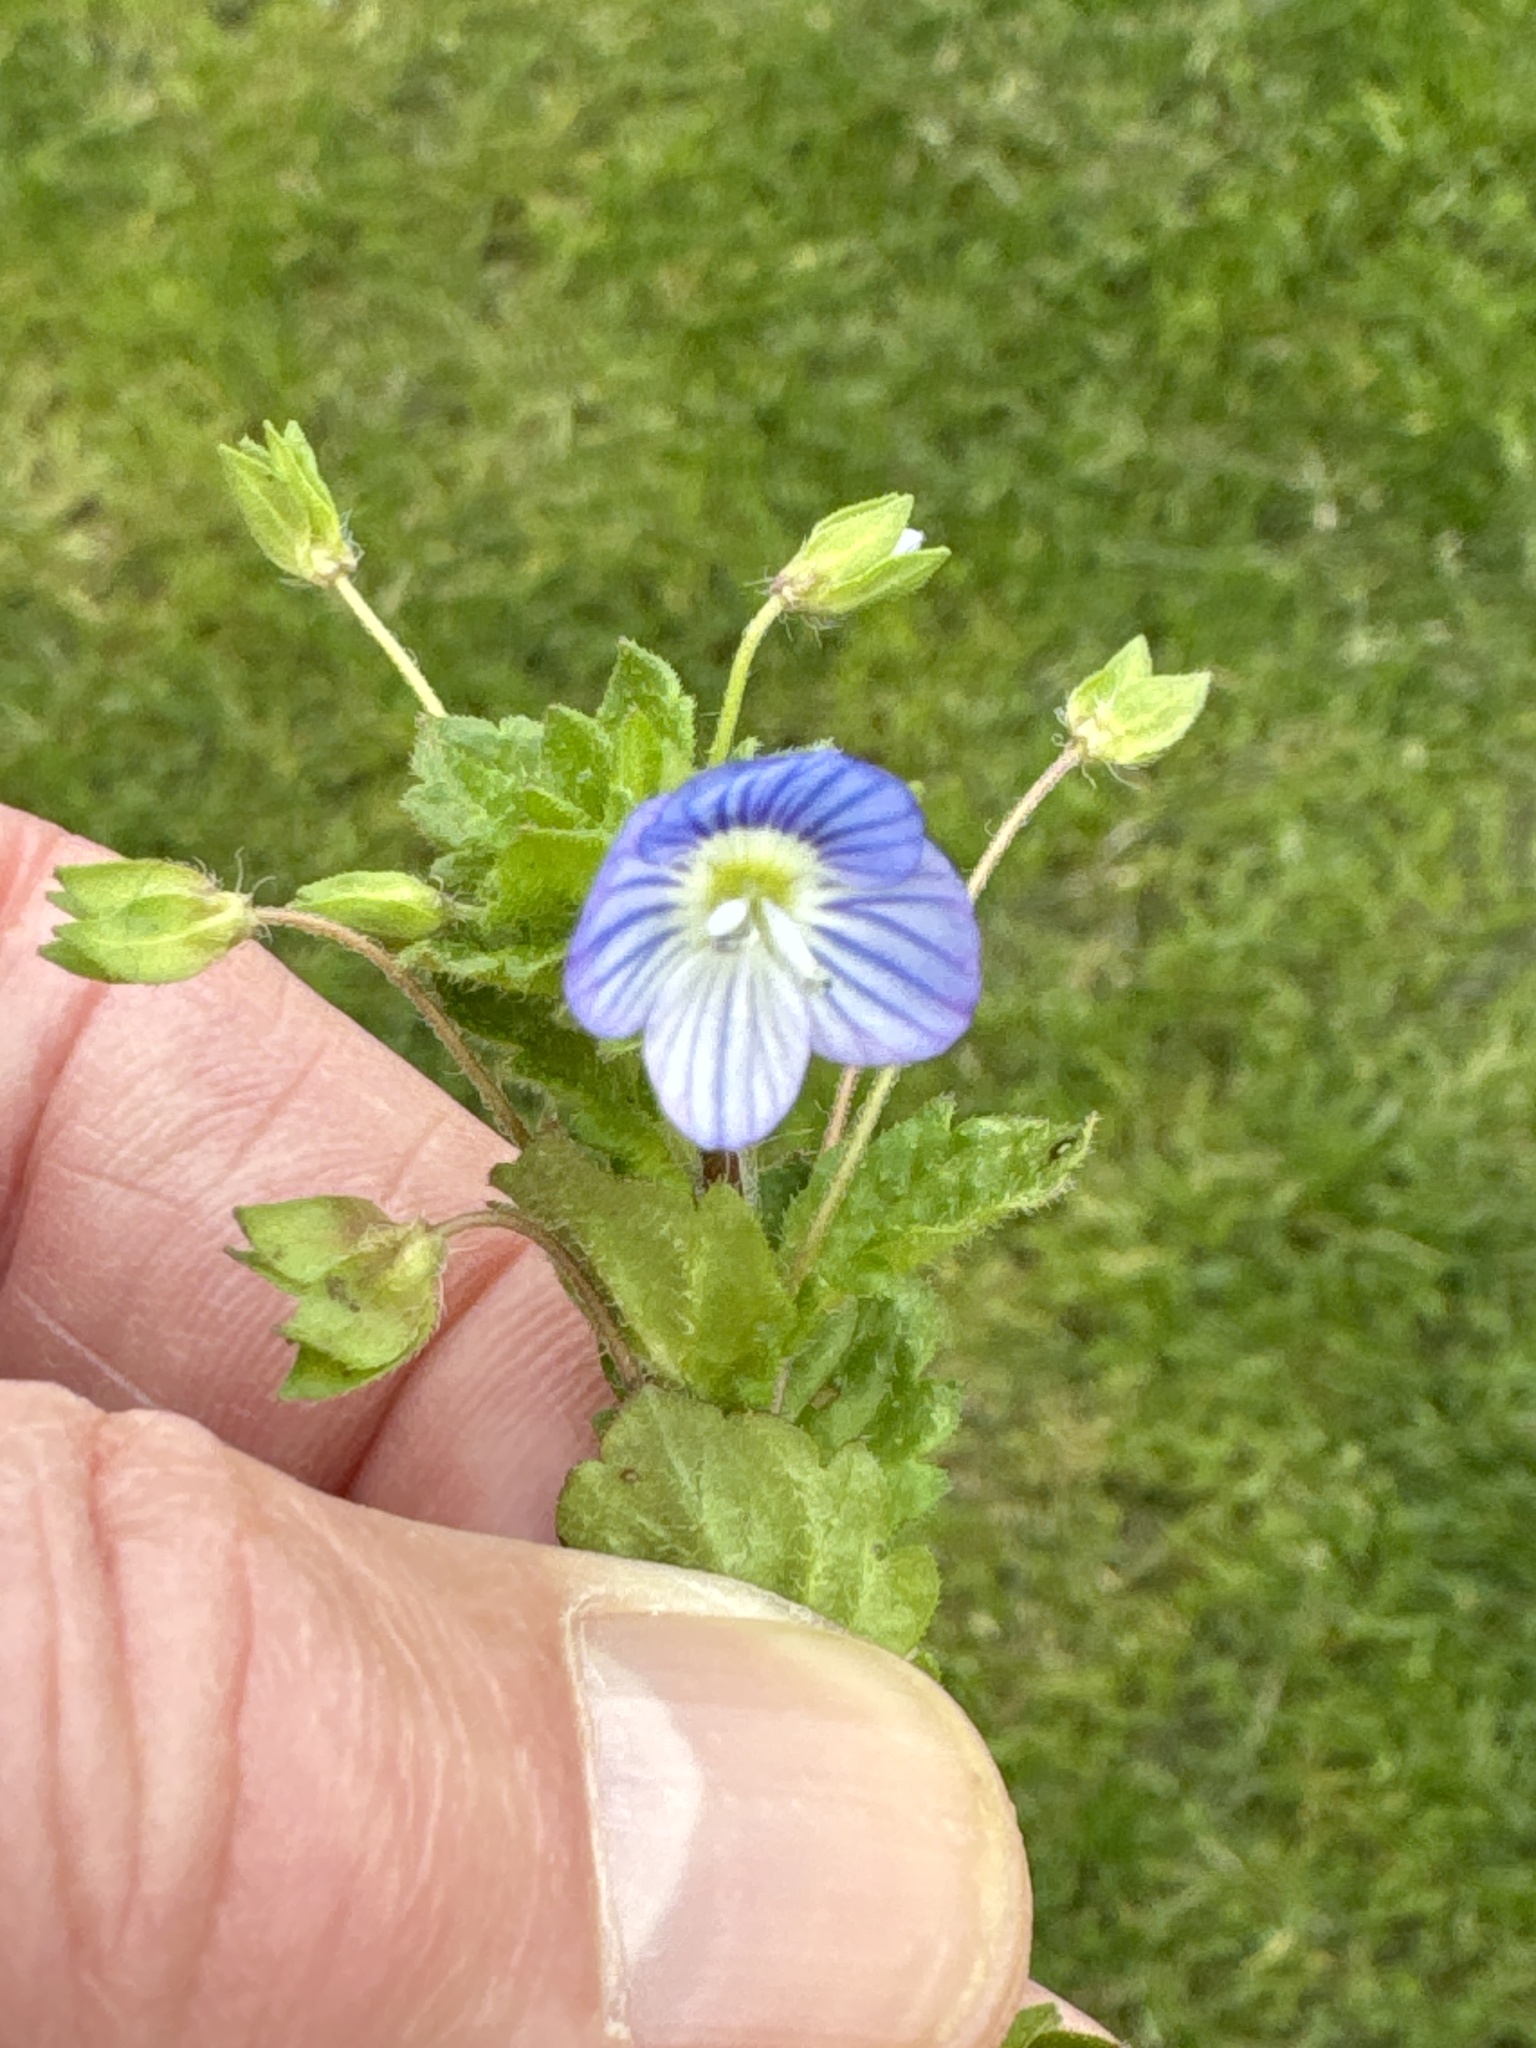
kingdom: Plantae
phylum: Tracheophyta
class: Magnoliopsida
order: Lamiales
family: Plantaginaceae
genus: Veronica
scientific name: Veronica persica
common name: Common field-speedwell
